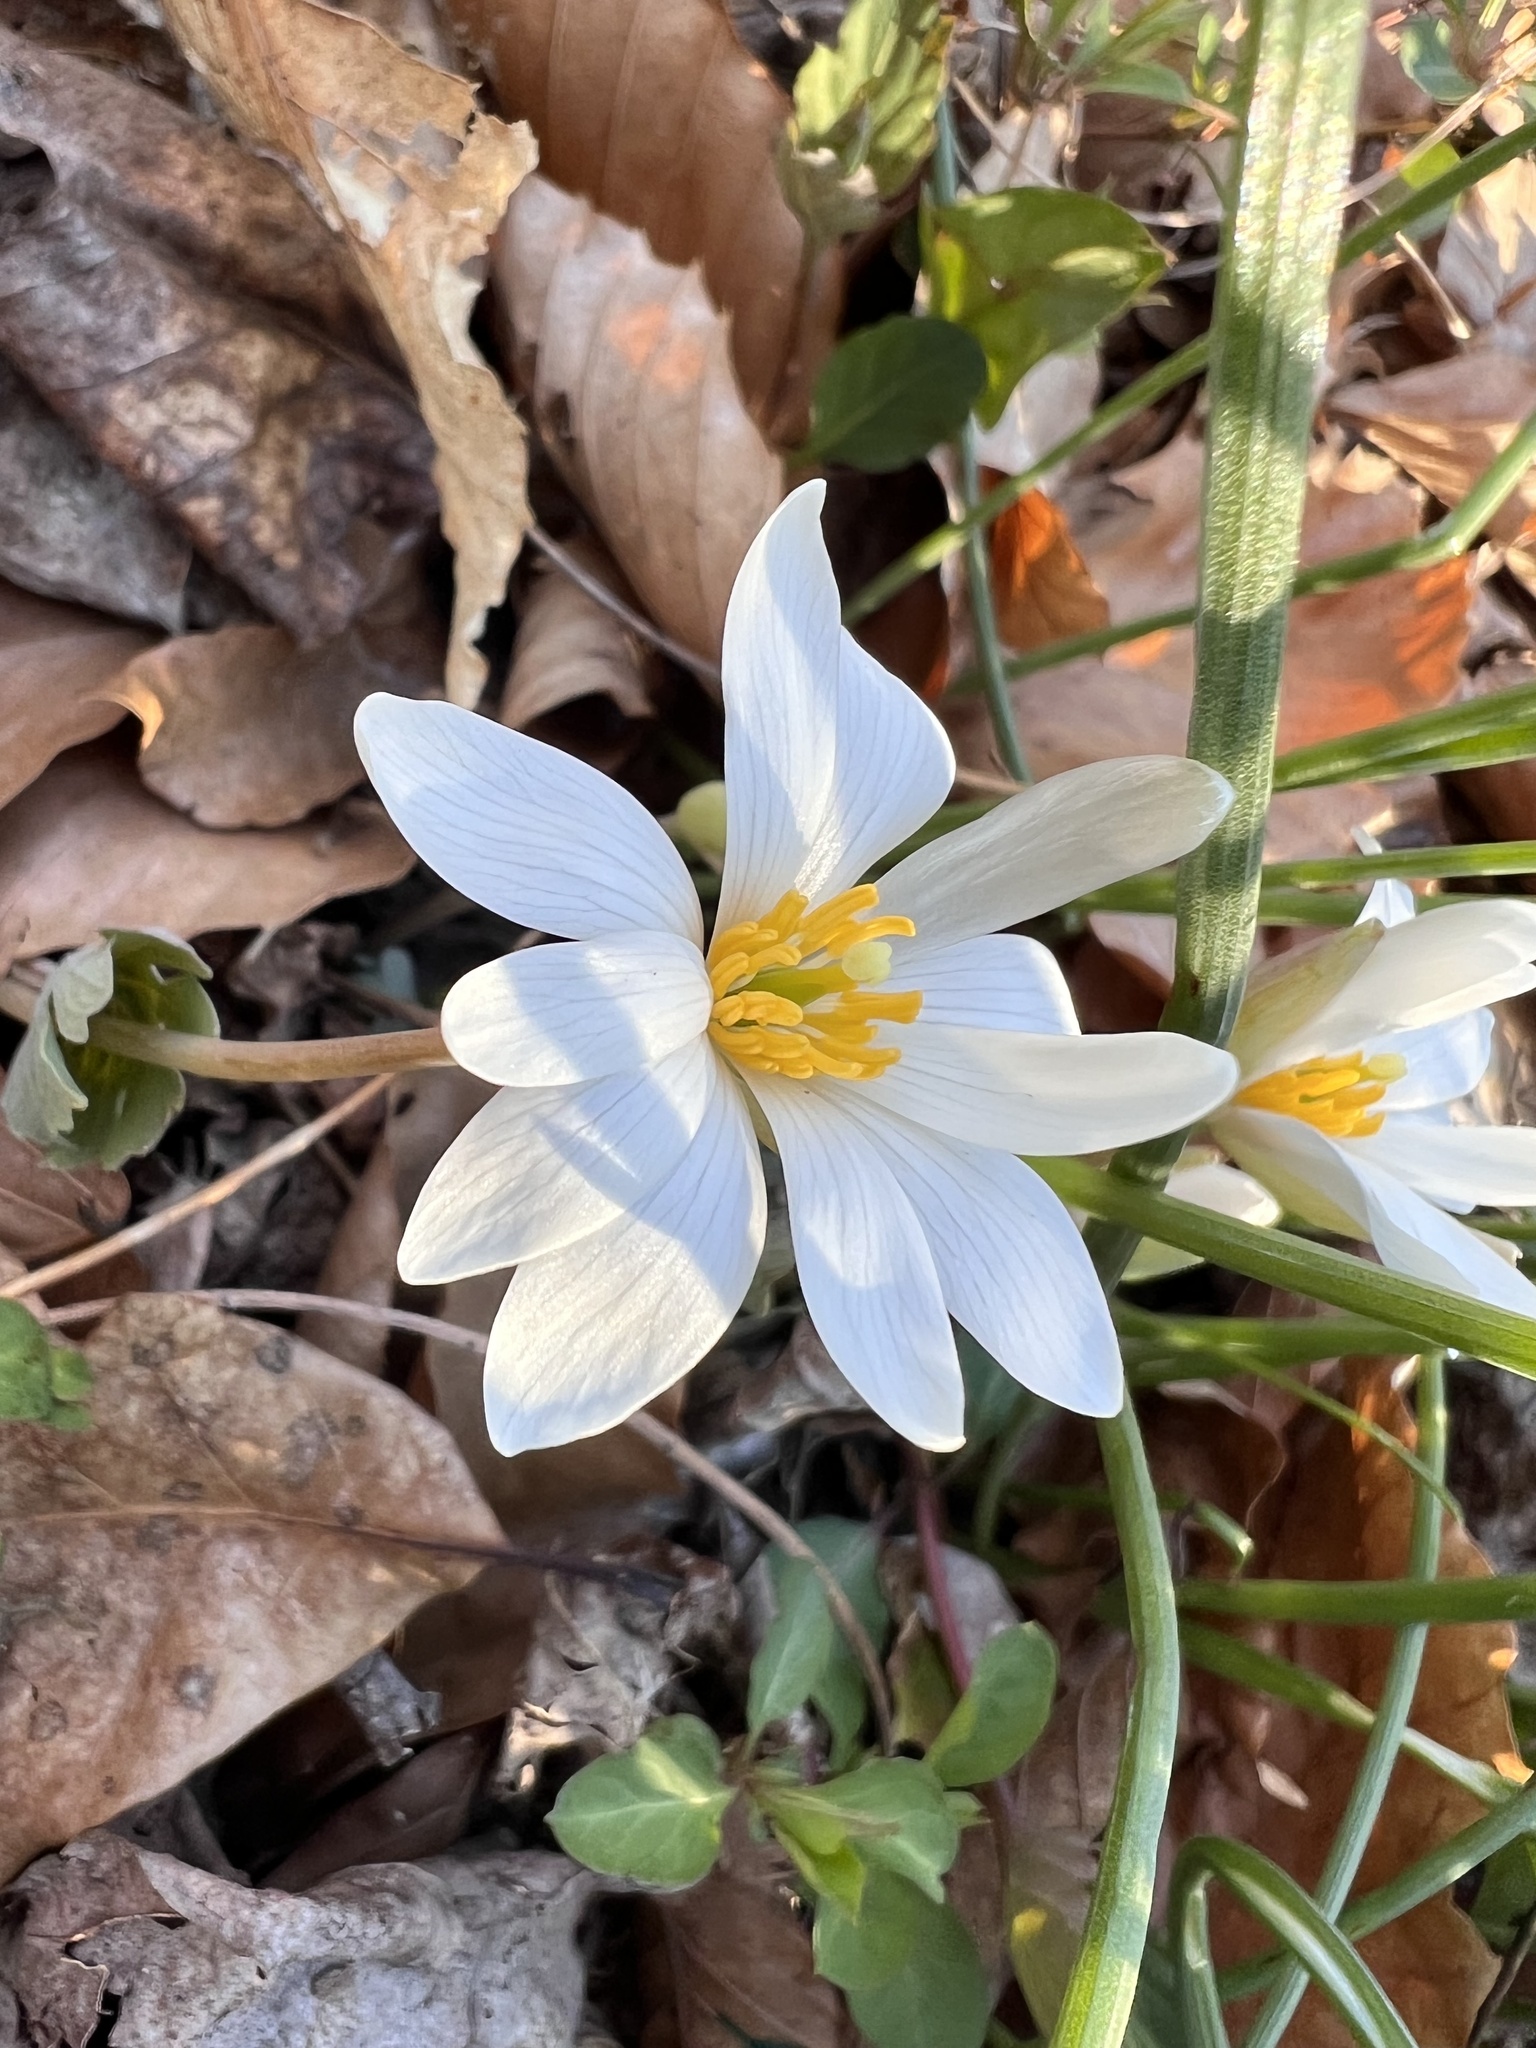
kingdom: Plantae
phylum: Tracheophyta
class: Magnoliopsida
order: Ranunculales
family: Papaveraceae
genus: Sanguinaria
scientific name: Sanguinaria canadensis
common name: Bloodroot
